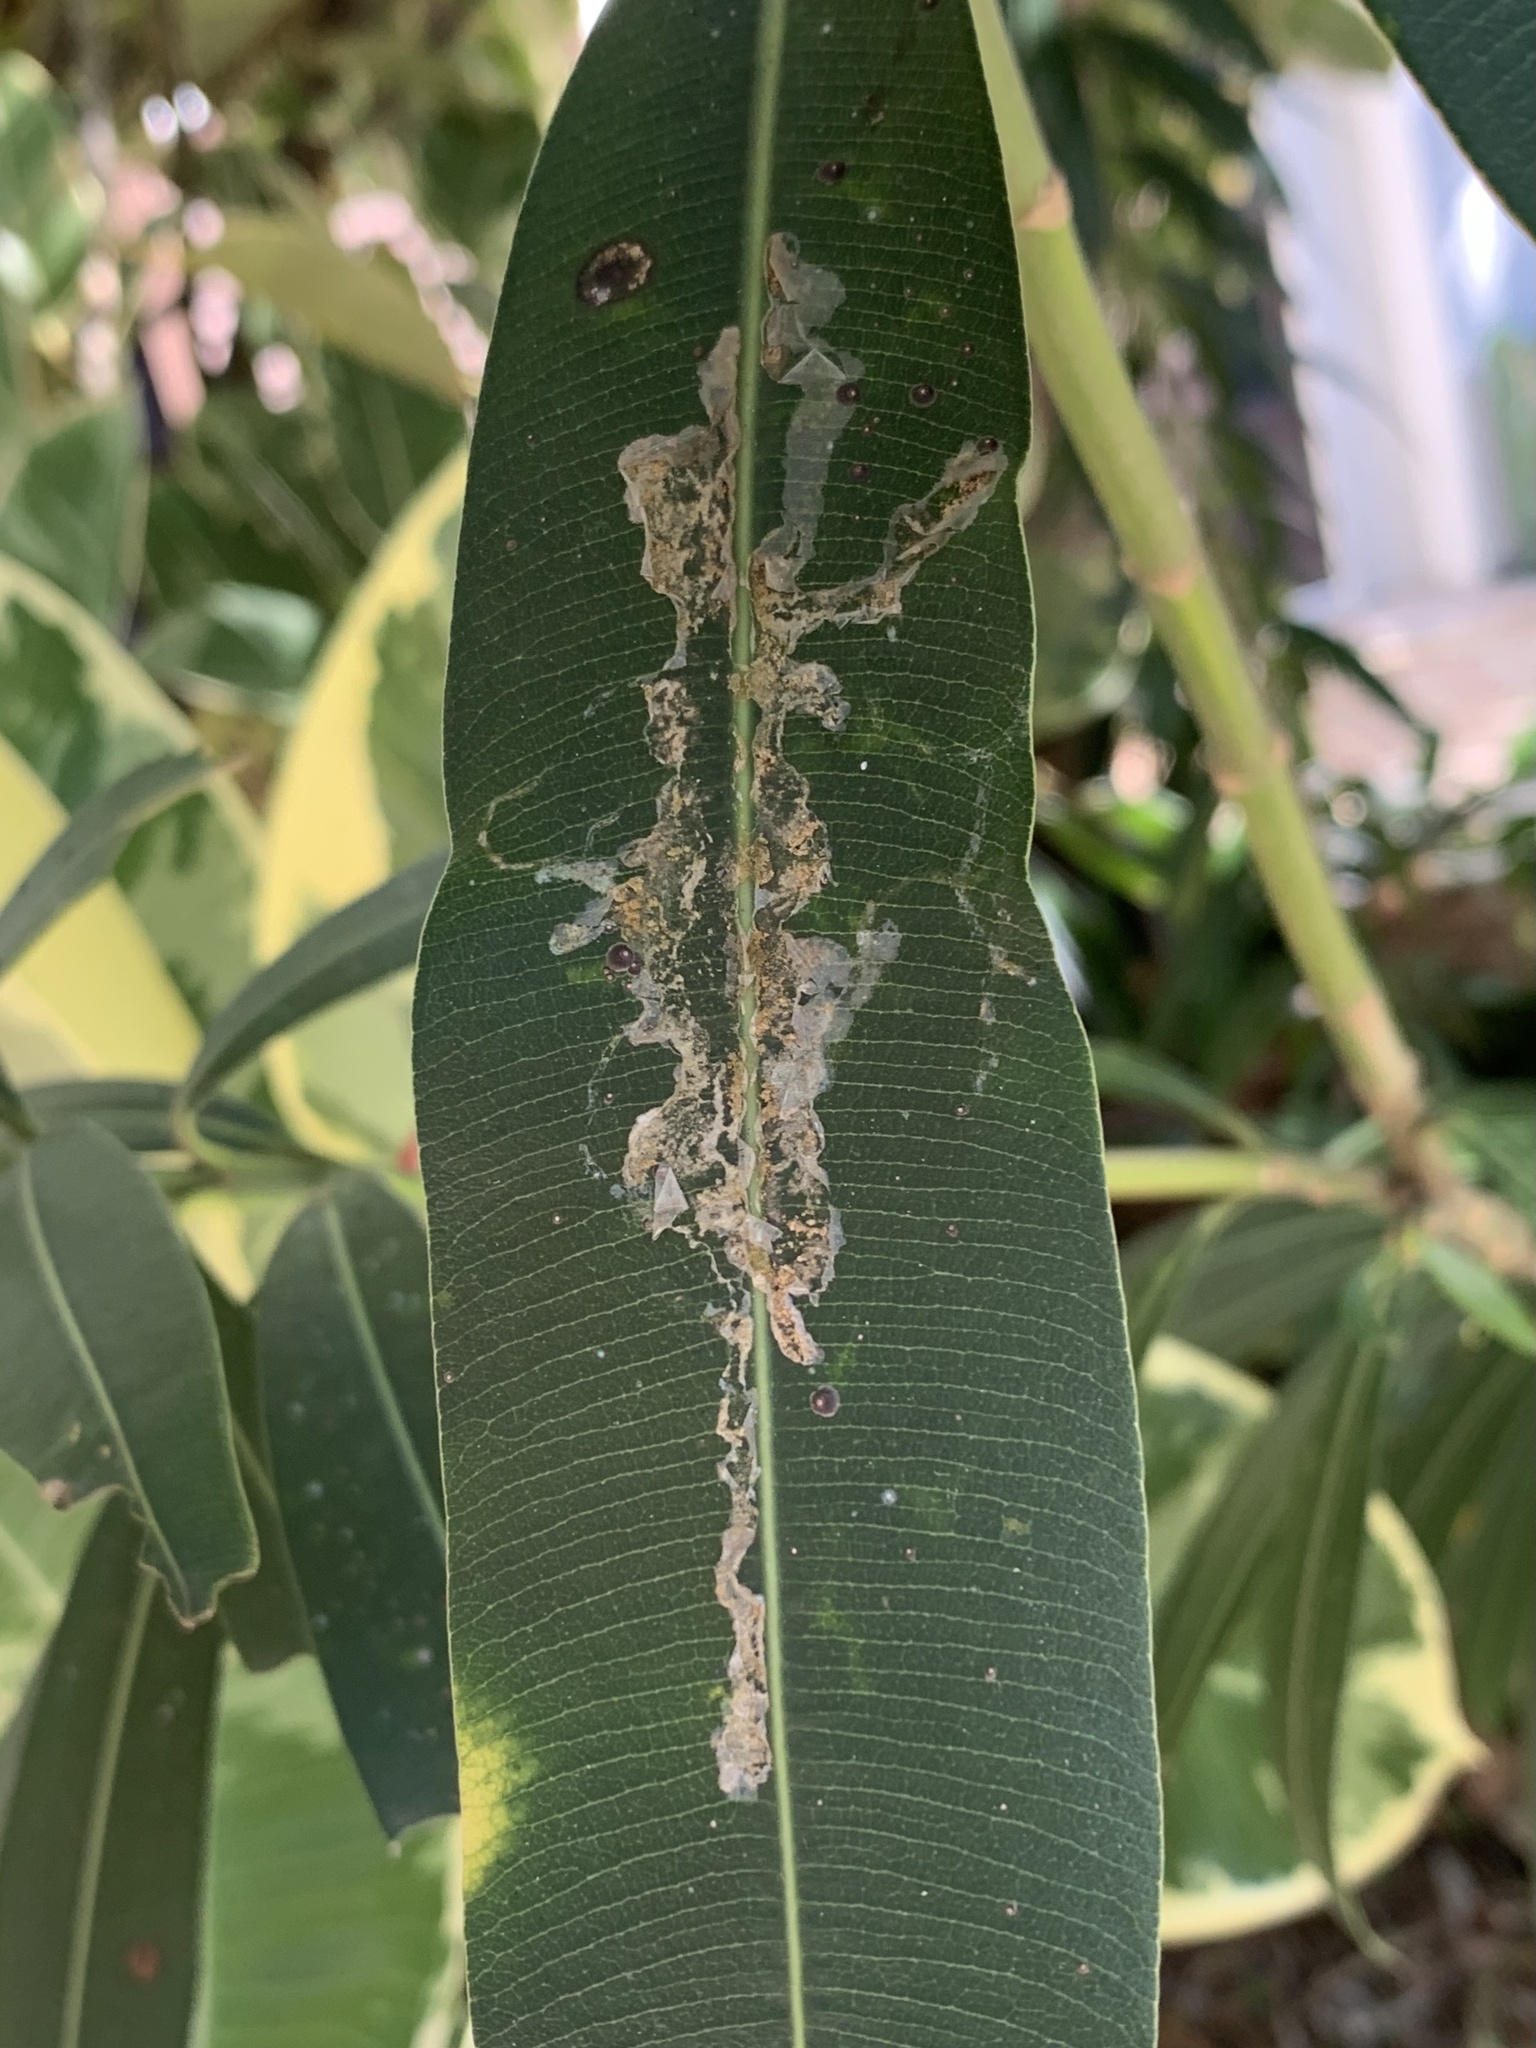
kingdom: Animalia
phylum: Arthropoda
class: Insecta
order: Diptera
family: Agromyzidae
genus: Liriomyza
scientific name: Liriomyza schmidti
